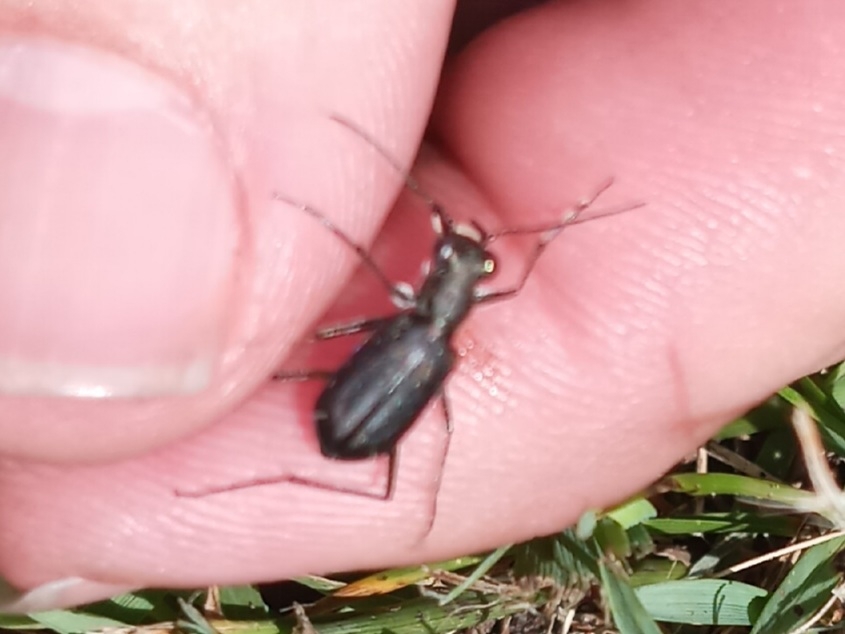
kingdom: Animalia
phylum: Arthropoda
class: Insecta
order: Coleoptera
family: Carabidae
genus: Cicindela
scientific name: Cicindela punctulata
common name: Punctured tiger beetle
